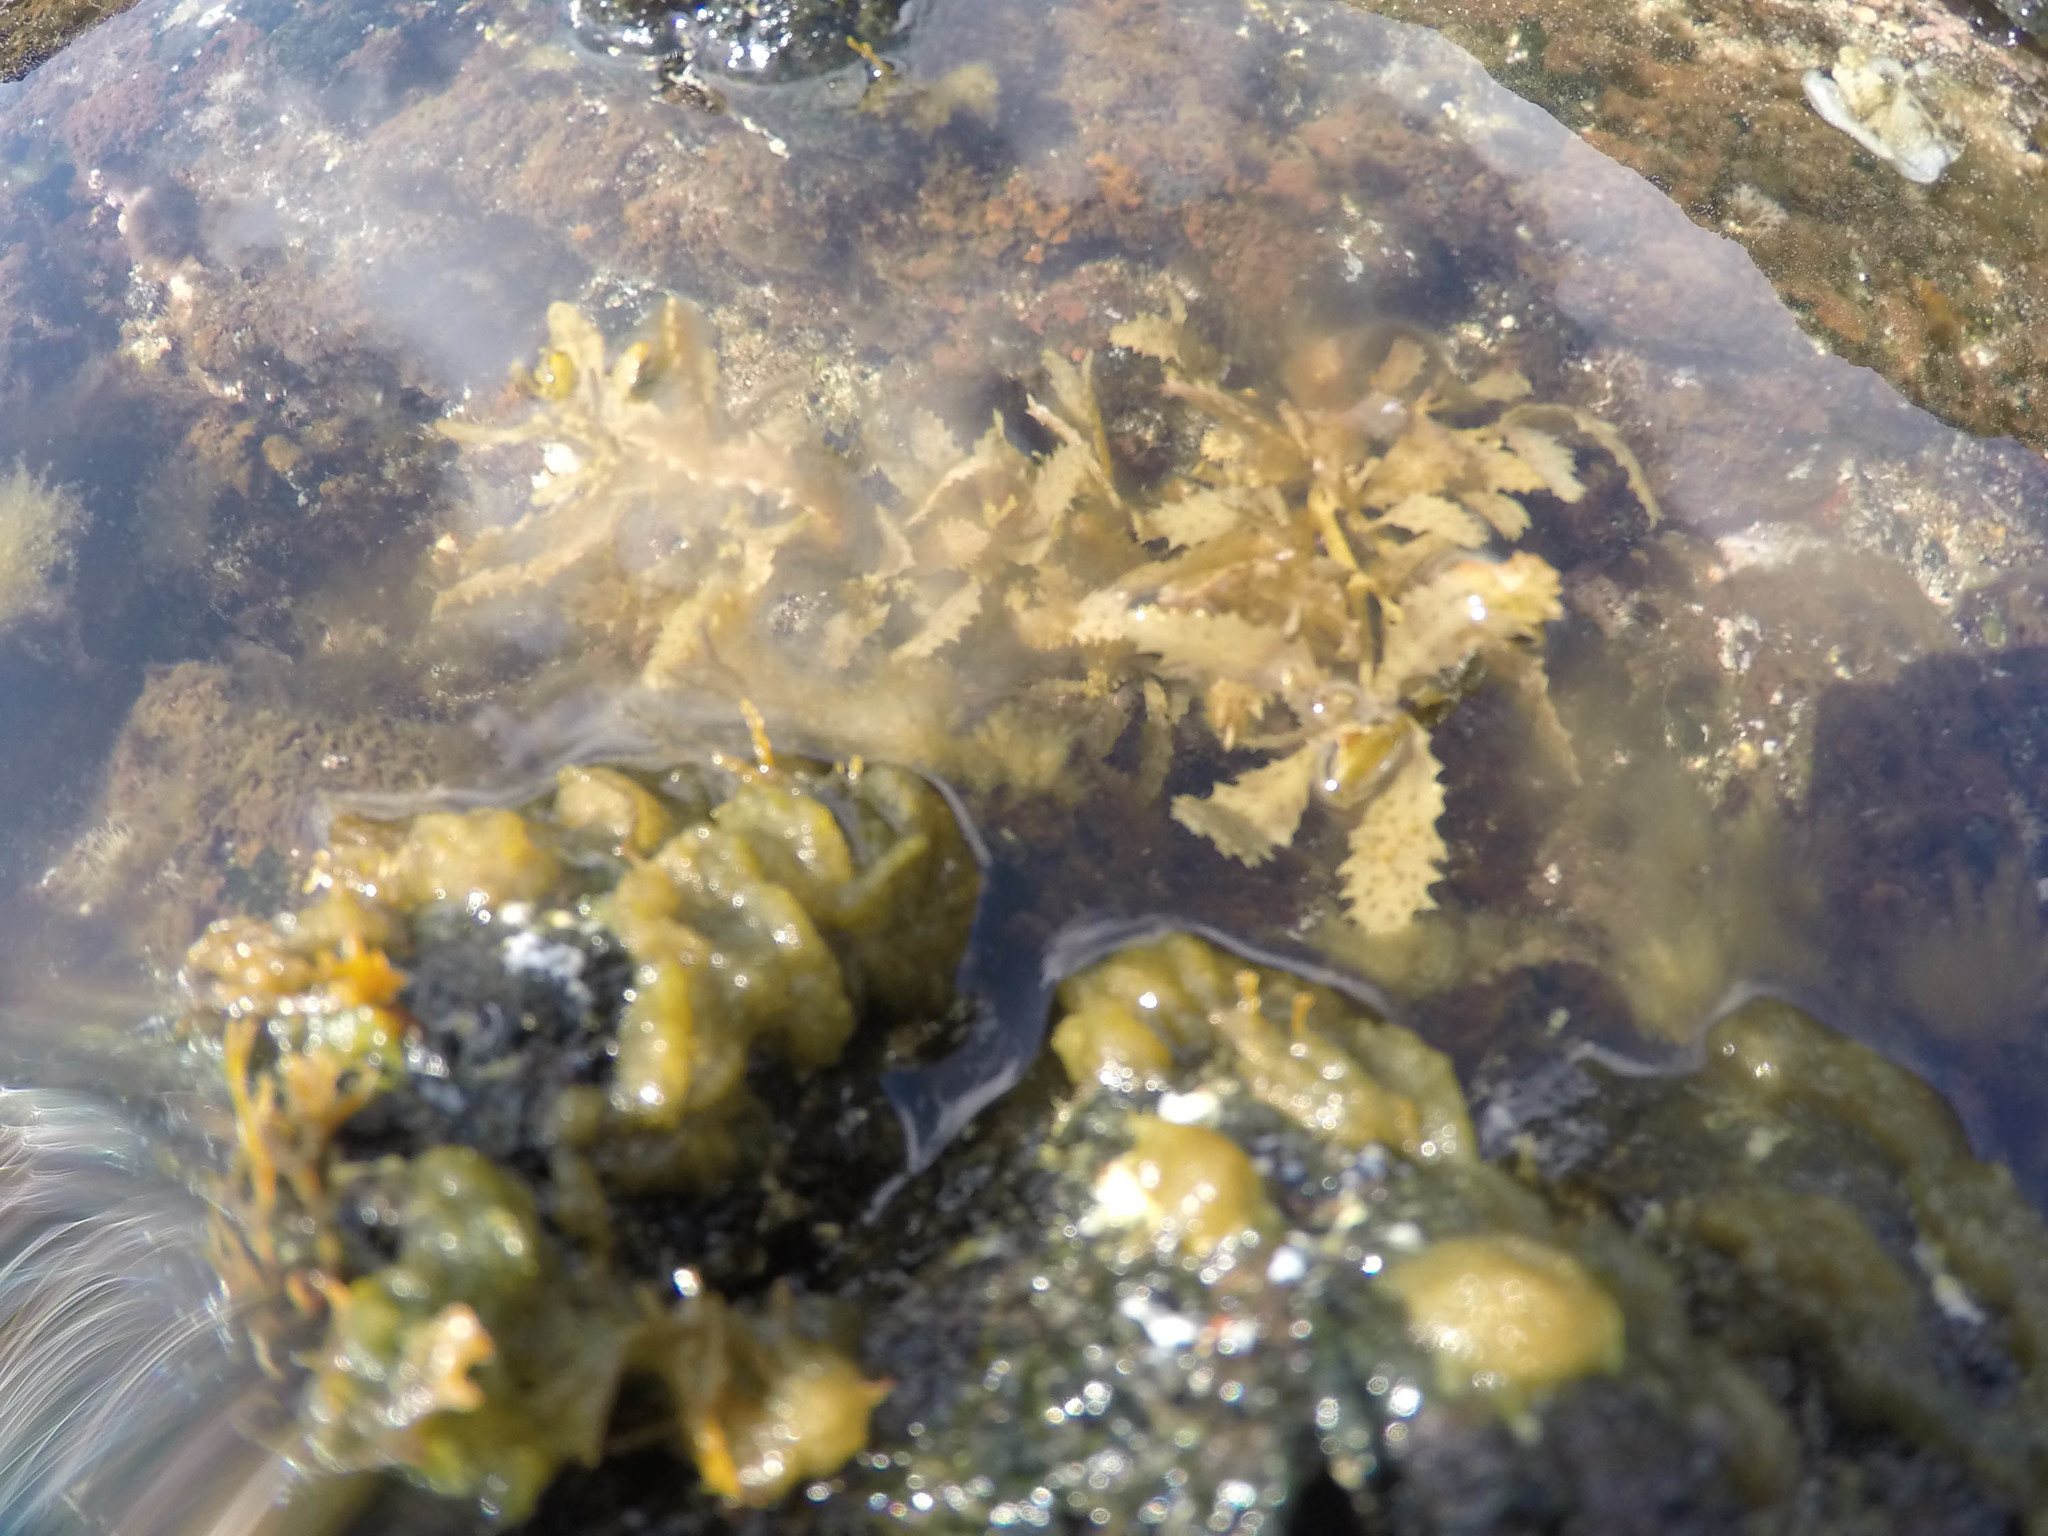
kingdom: Chromista
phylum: Ochrophyta
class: Phaeophyceae
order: Fucales
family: Sargassaceae
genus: Sargassum
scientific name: Sargassum aquifolium
